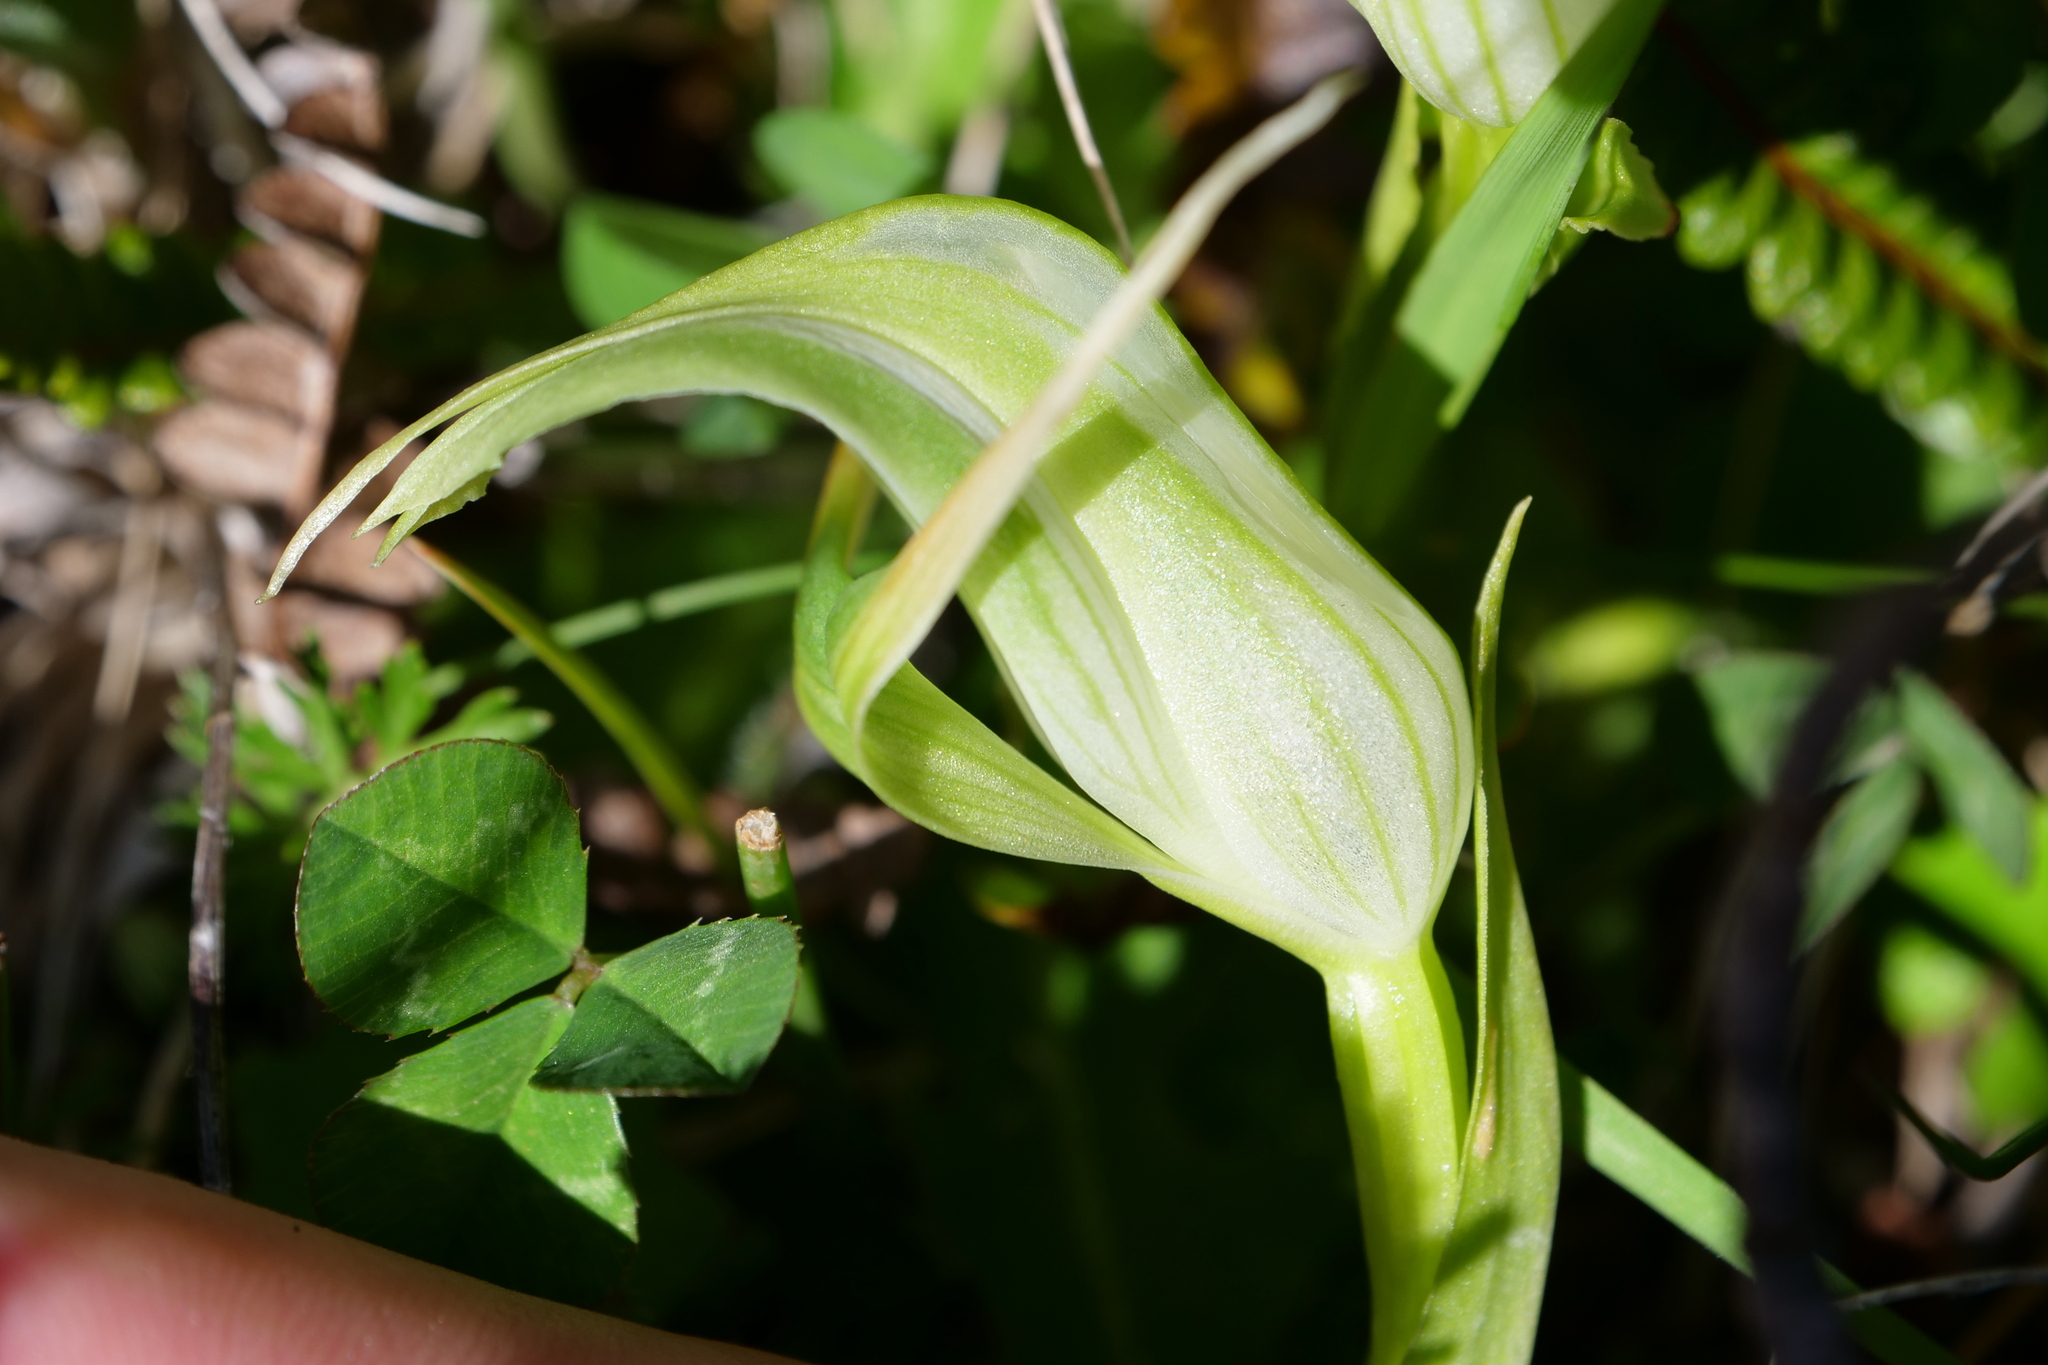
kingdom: Plantae
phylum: Tracheophyta
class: Liliopsida
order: Asparagales
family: Orchidaceae
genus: Pterostylis
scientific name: Pterostylis australis
